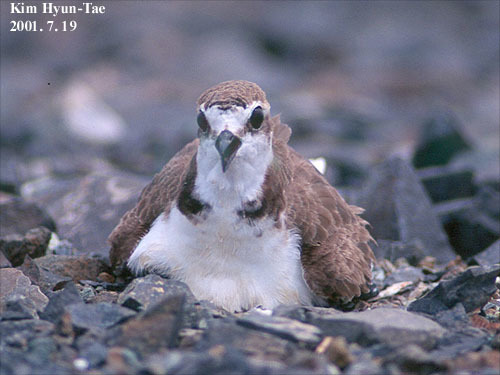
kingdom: Animalia
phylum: Chordata
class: Aves
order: Charadriiformes
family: Charadriidae
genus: Charadrius
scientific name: Charadrius alexandrinus
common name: Kentish plover
